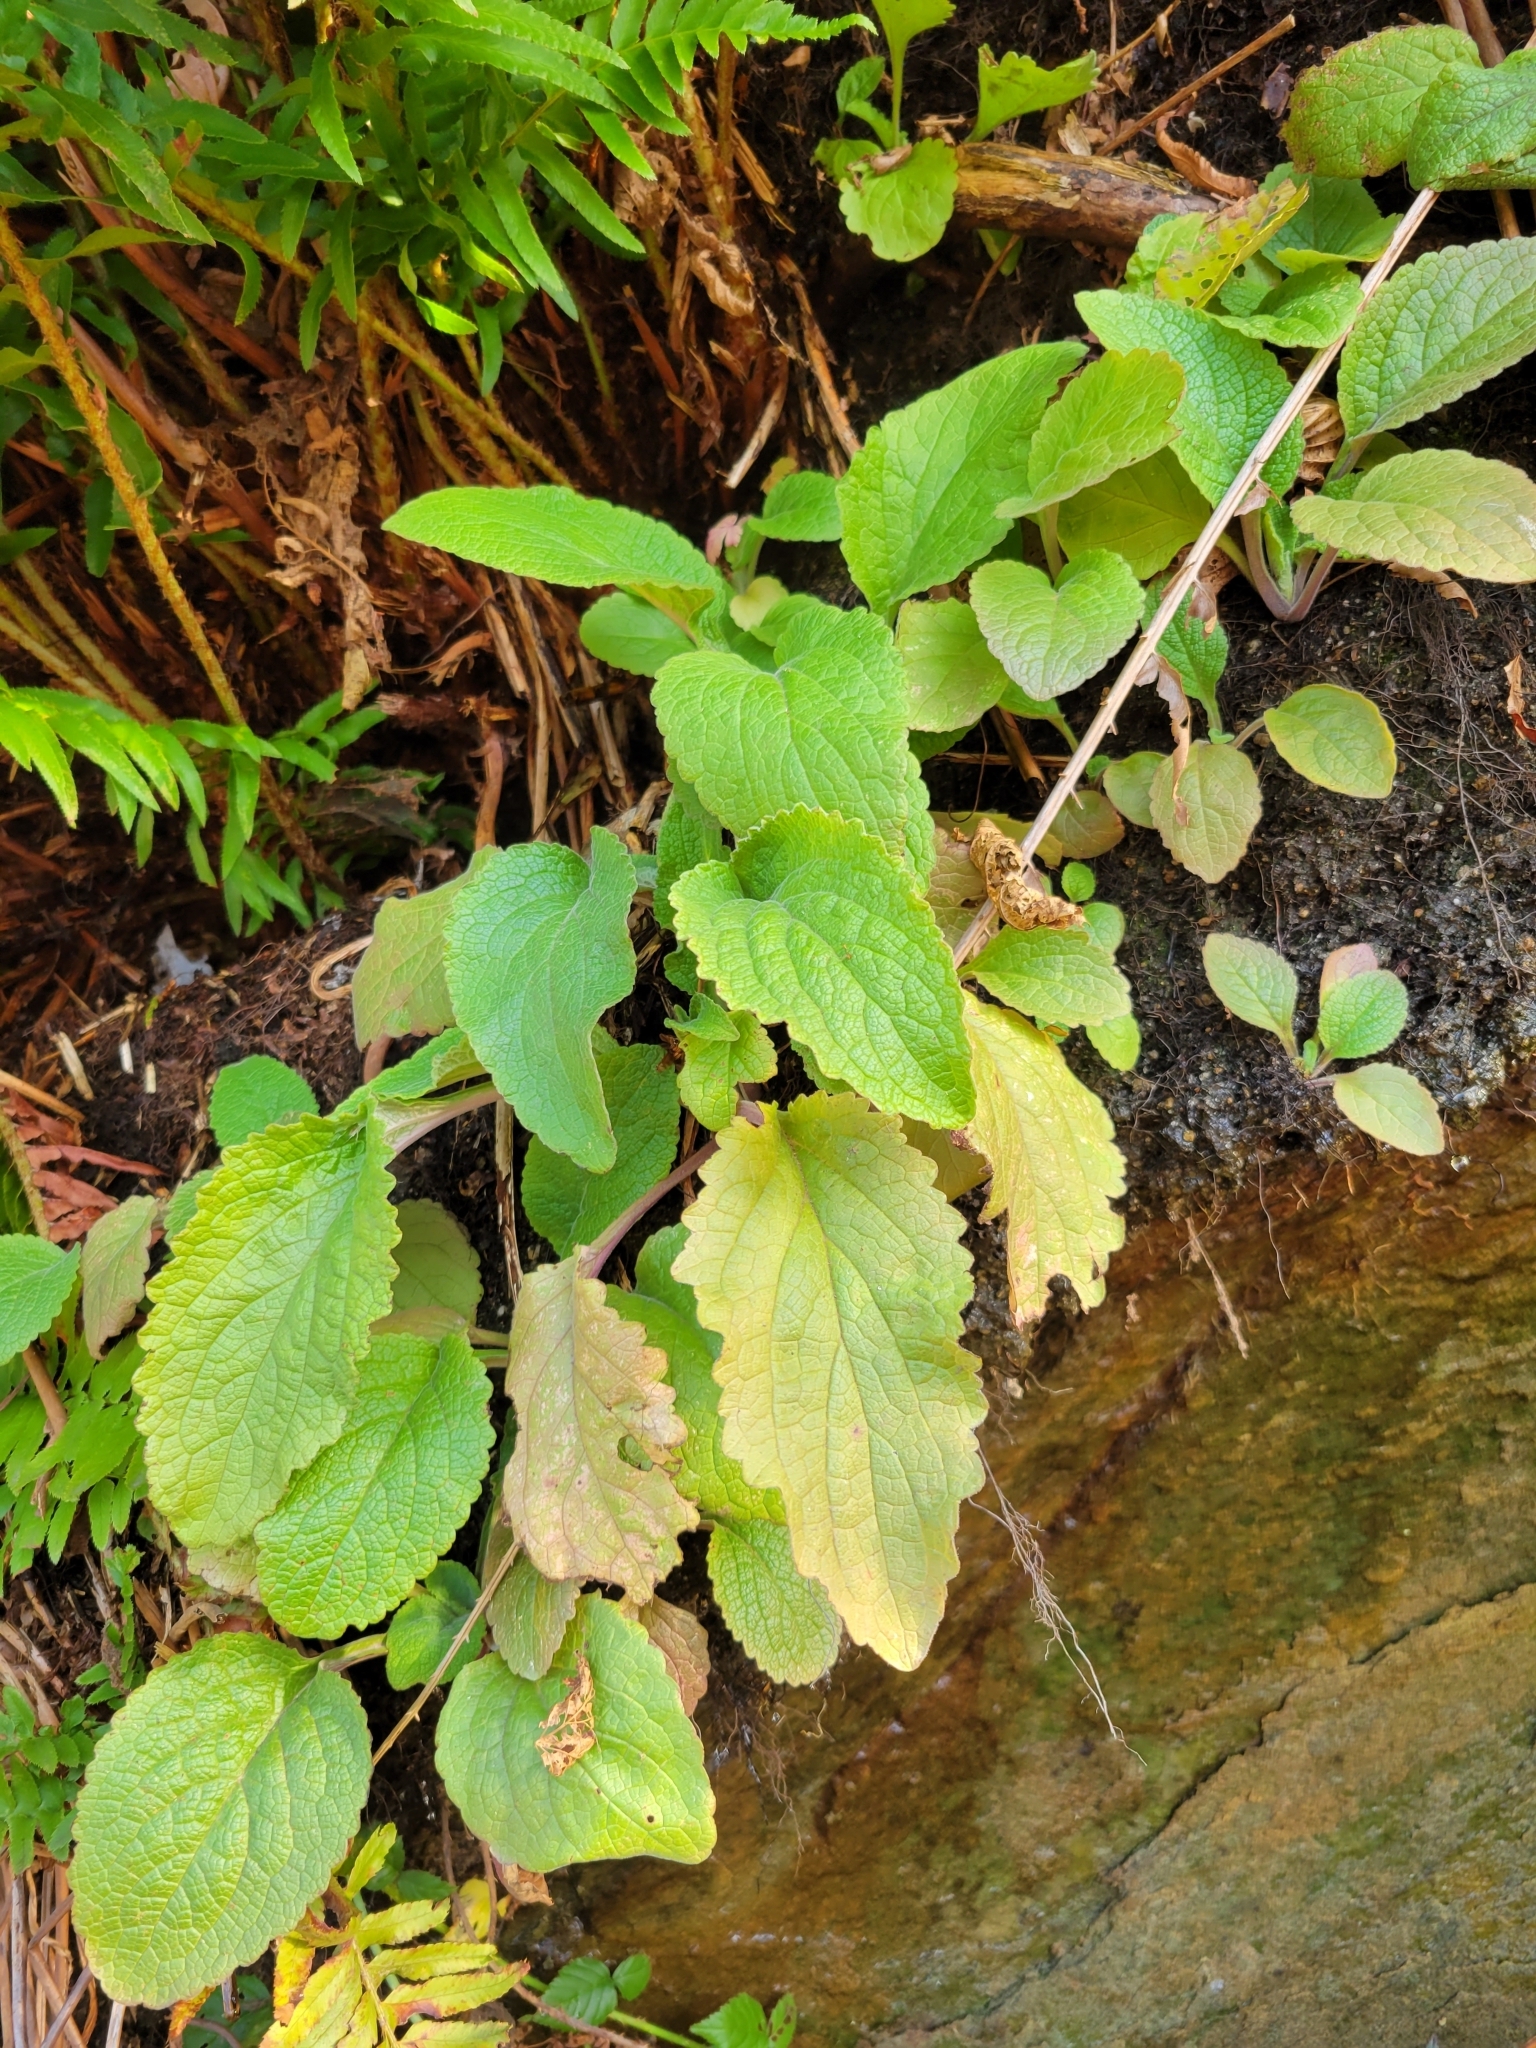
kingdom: Plantae
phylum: Tracheophyta
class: Magnoliopsida
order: Lamiales
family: Plantaginaceae
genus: Digitalis
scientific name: Digitalis purpurea
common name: Foxglove
